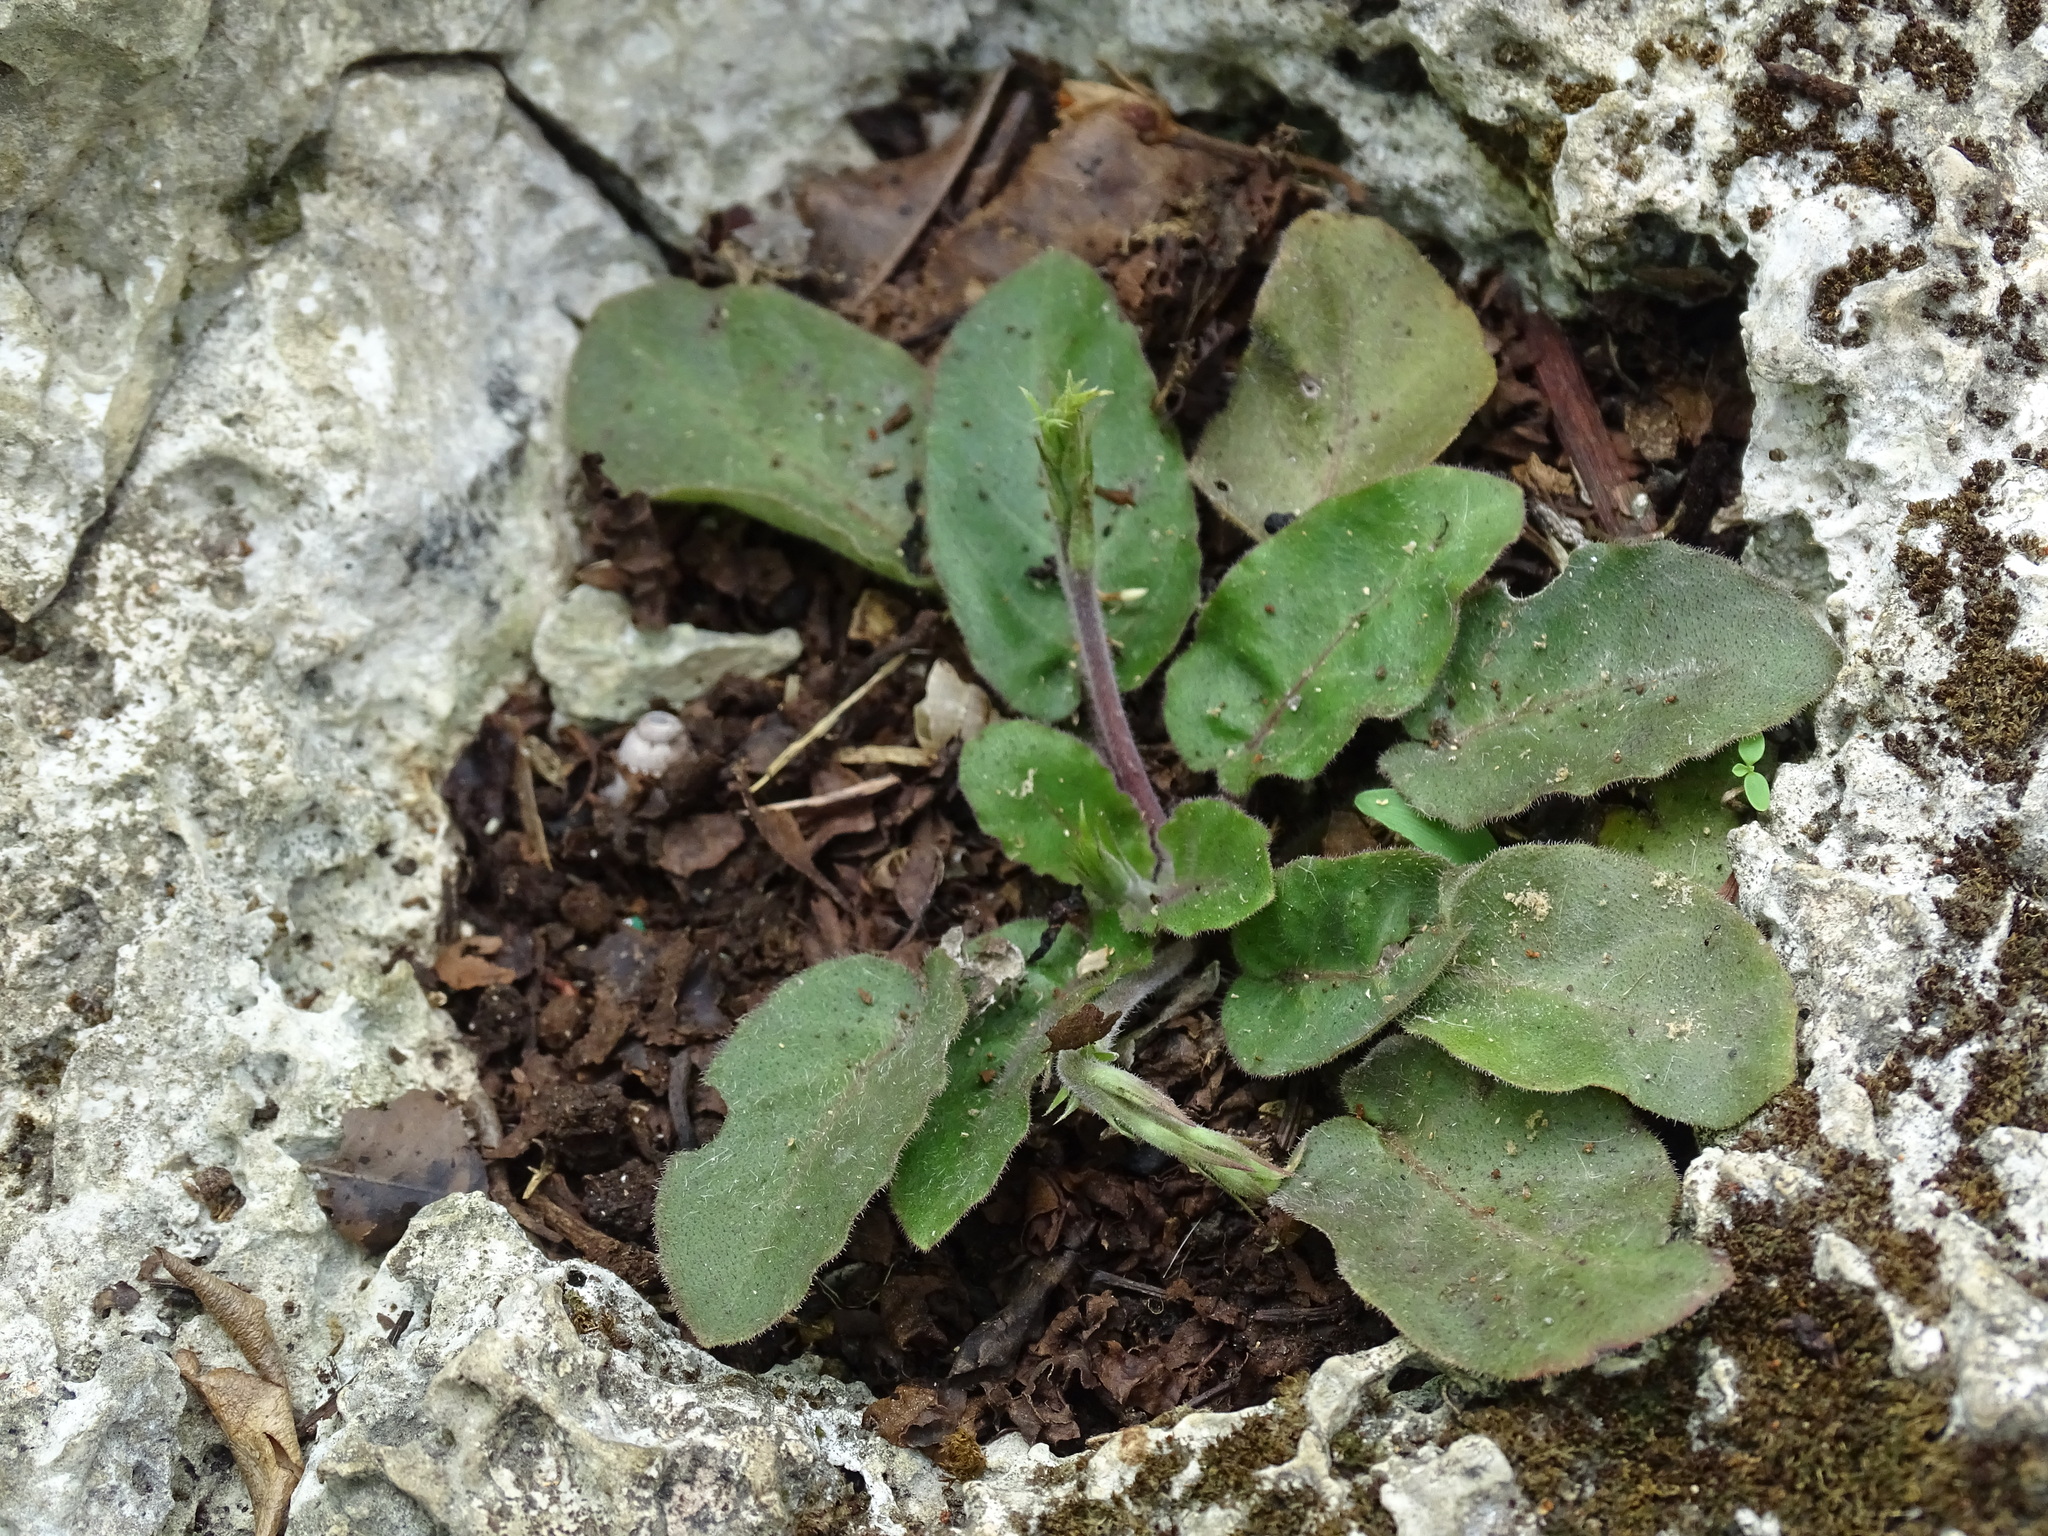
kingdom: Plantae
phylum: Tracheophyta
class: Magnoliopsida
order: Lamiales
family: Acanthaceae
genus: Elytraria
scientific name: Elytraria bromoides
